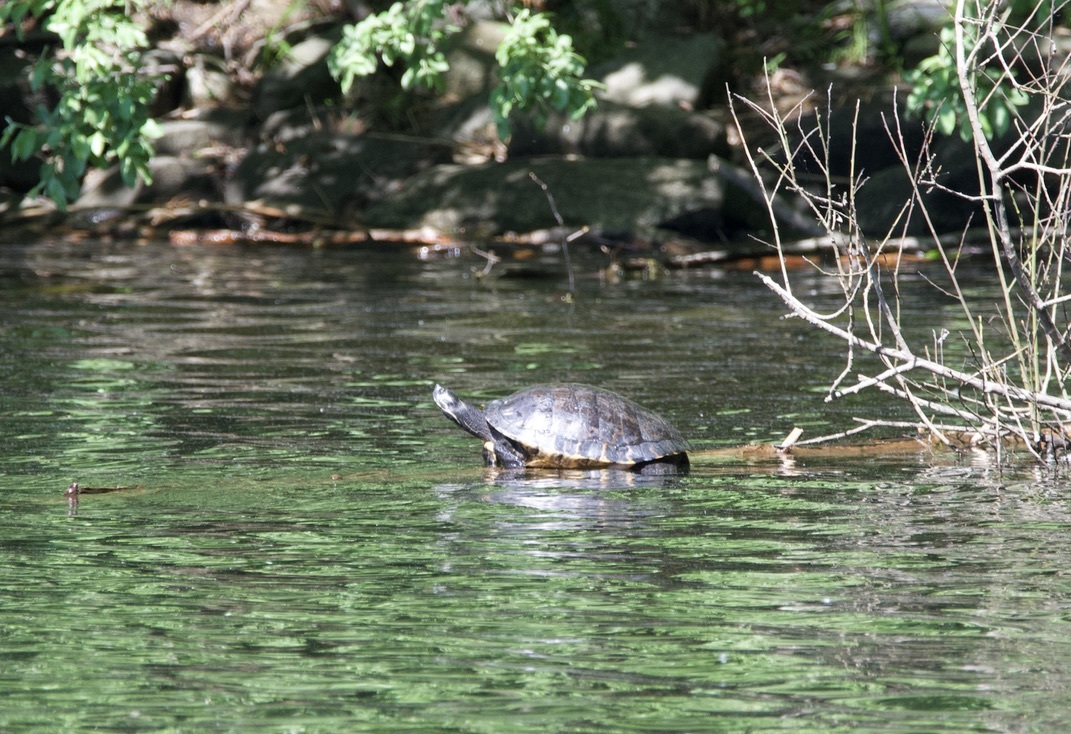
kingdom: Animalia
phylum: Chordata
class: Testudines
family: Emydidae
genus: Trachemys
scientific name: Trachemys scripta
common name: Slider
